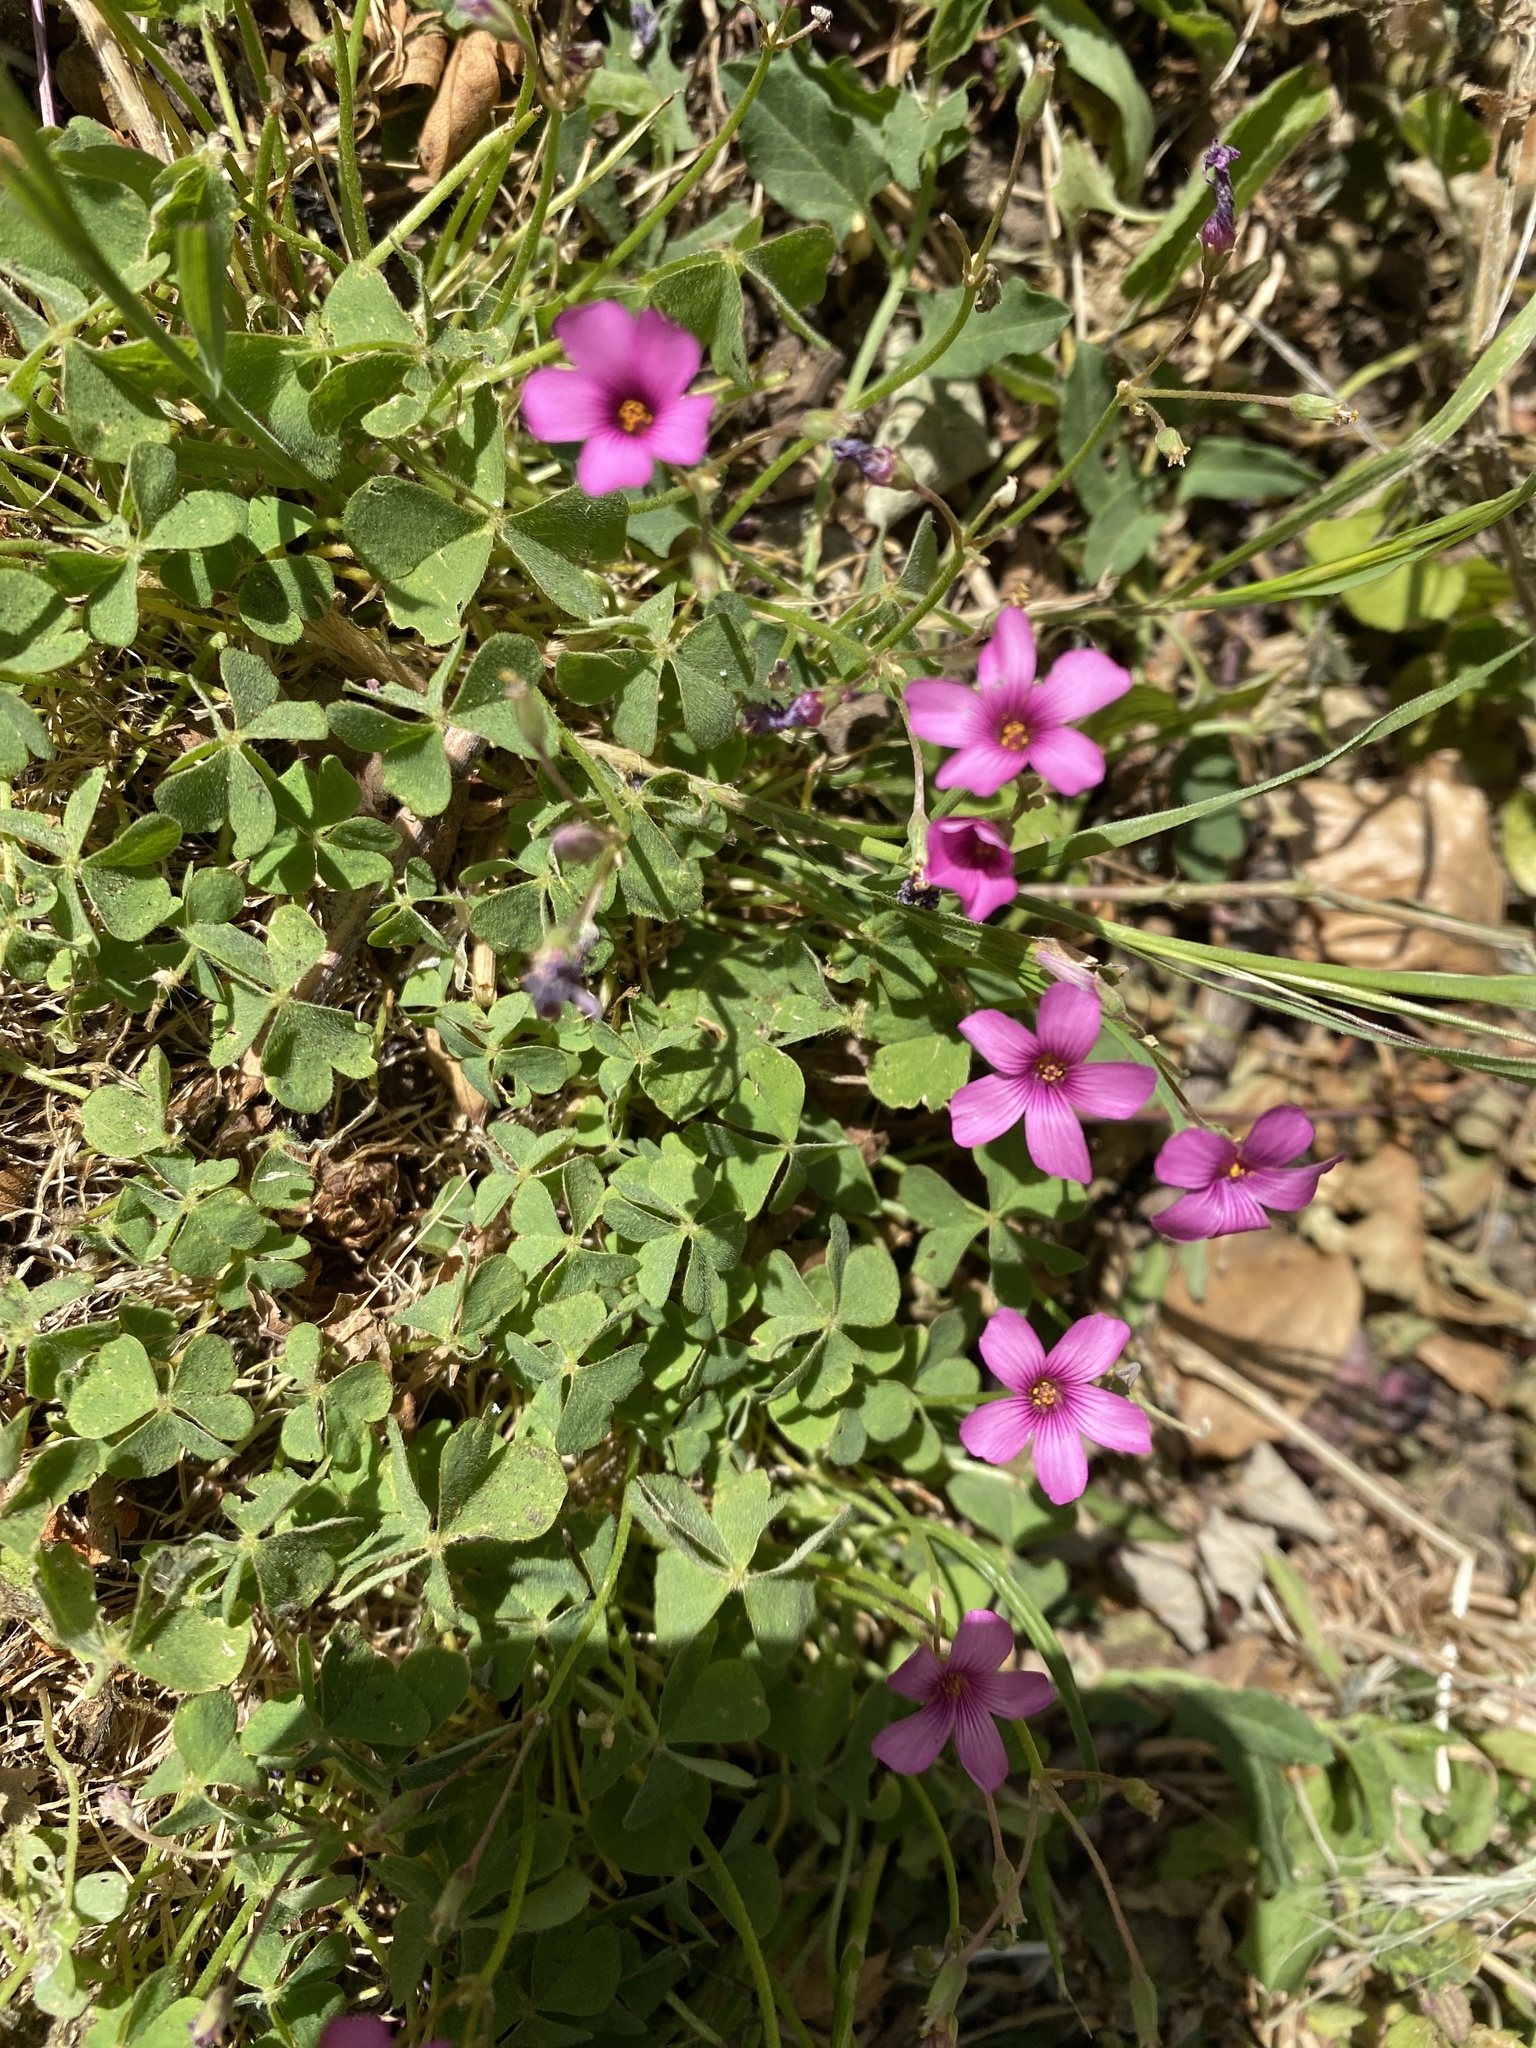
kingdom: Plantae
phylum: Tracheophyta
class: Magnoliopsida
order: Oxalidales
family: Oxalidaceae
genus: Oxalis
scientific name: Oxalis articulata
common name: Pink-sorrel
